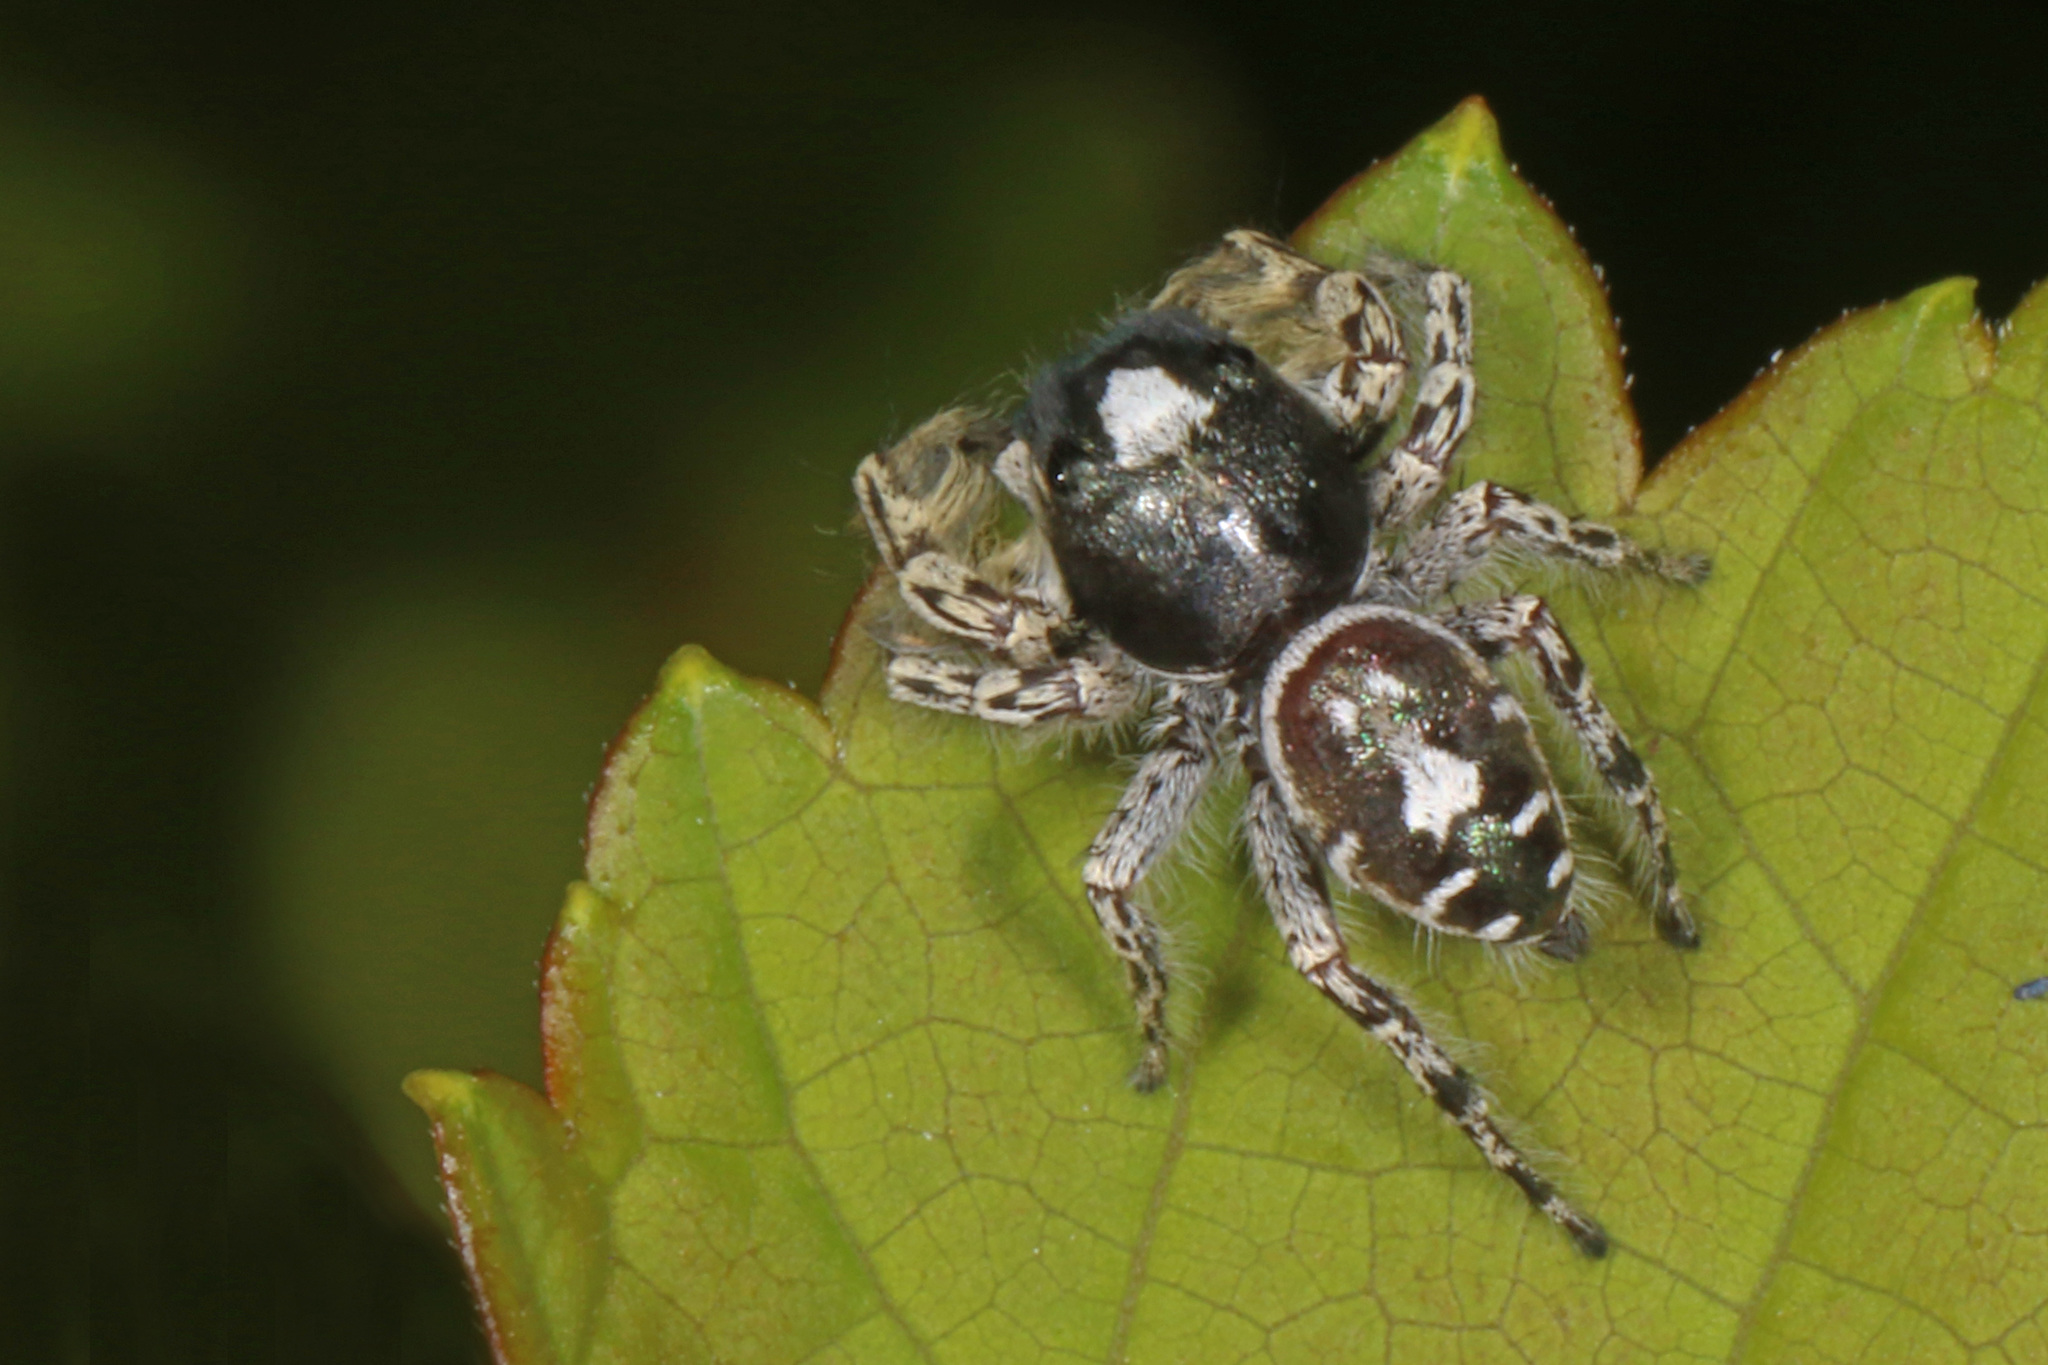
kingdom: Animalia
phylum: Arthropoda
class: Arachnida
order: Araneae
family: Salticidae
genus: Phidippus
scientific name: Phidippus putnami
